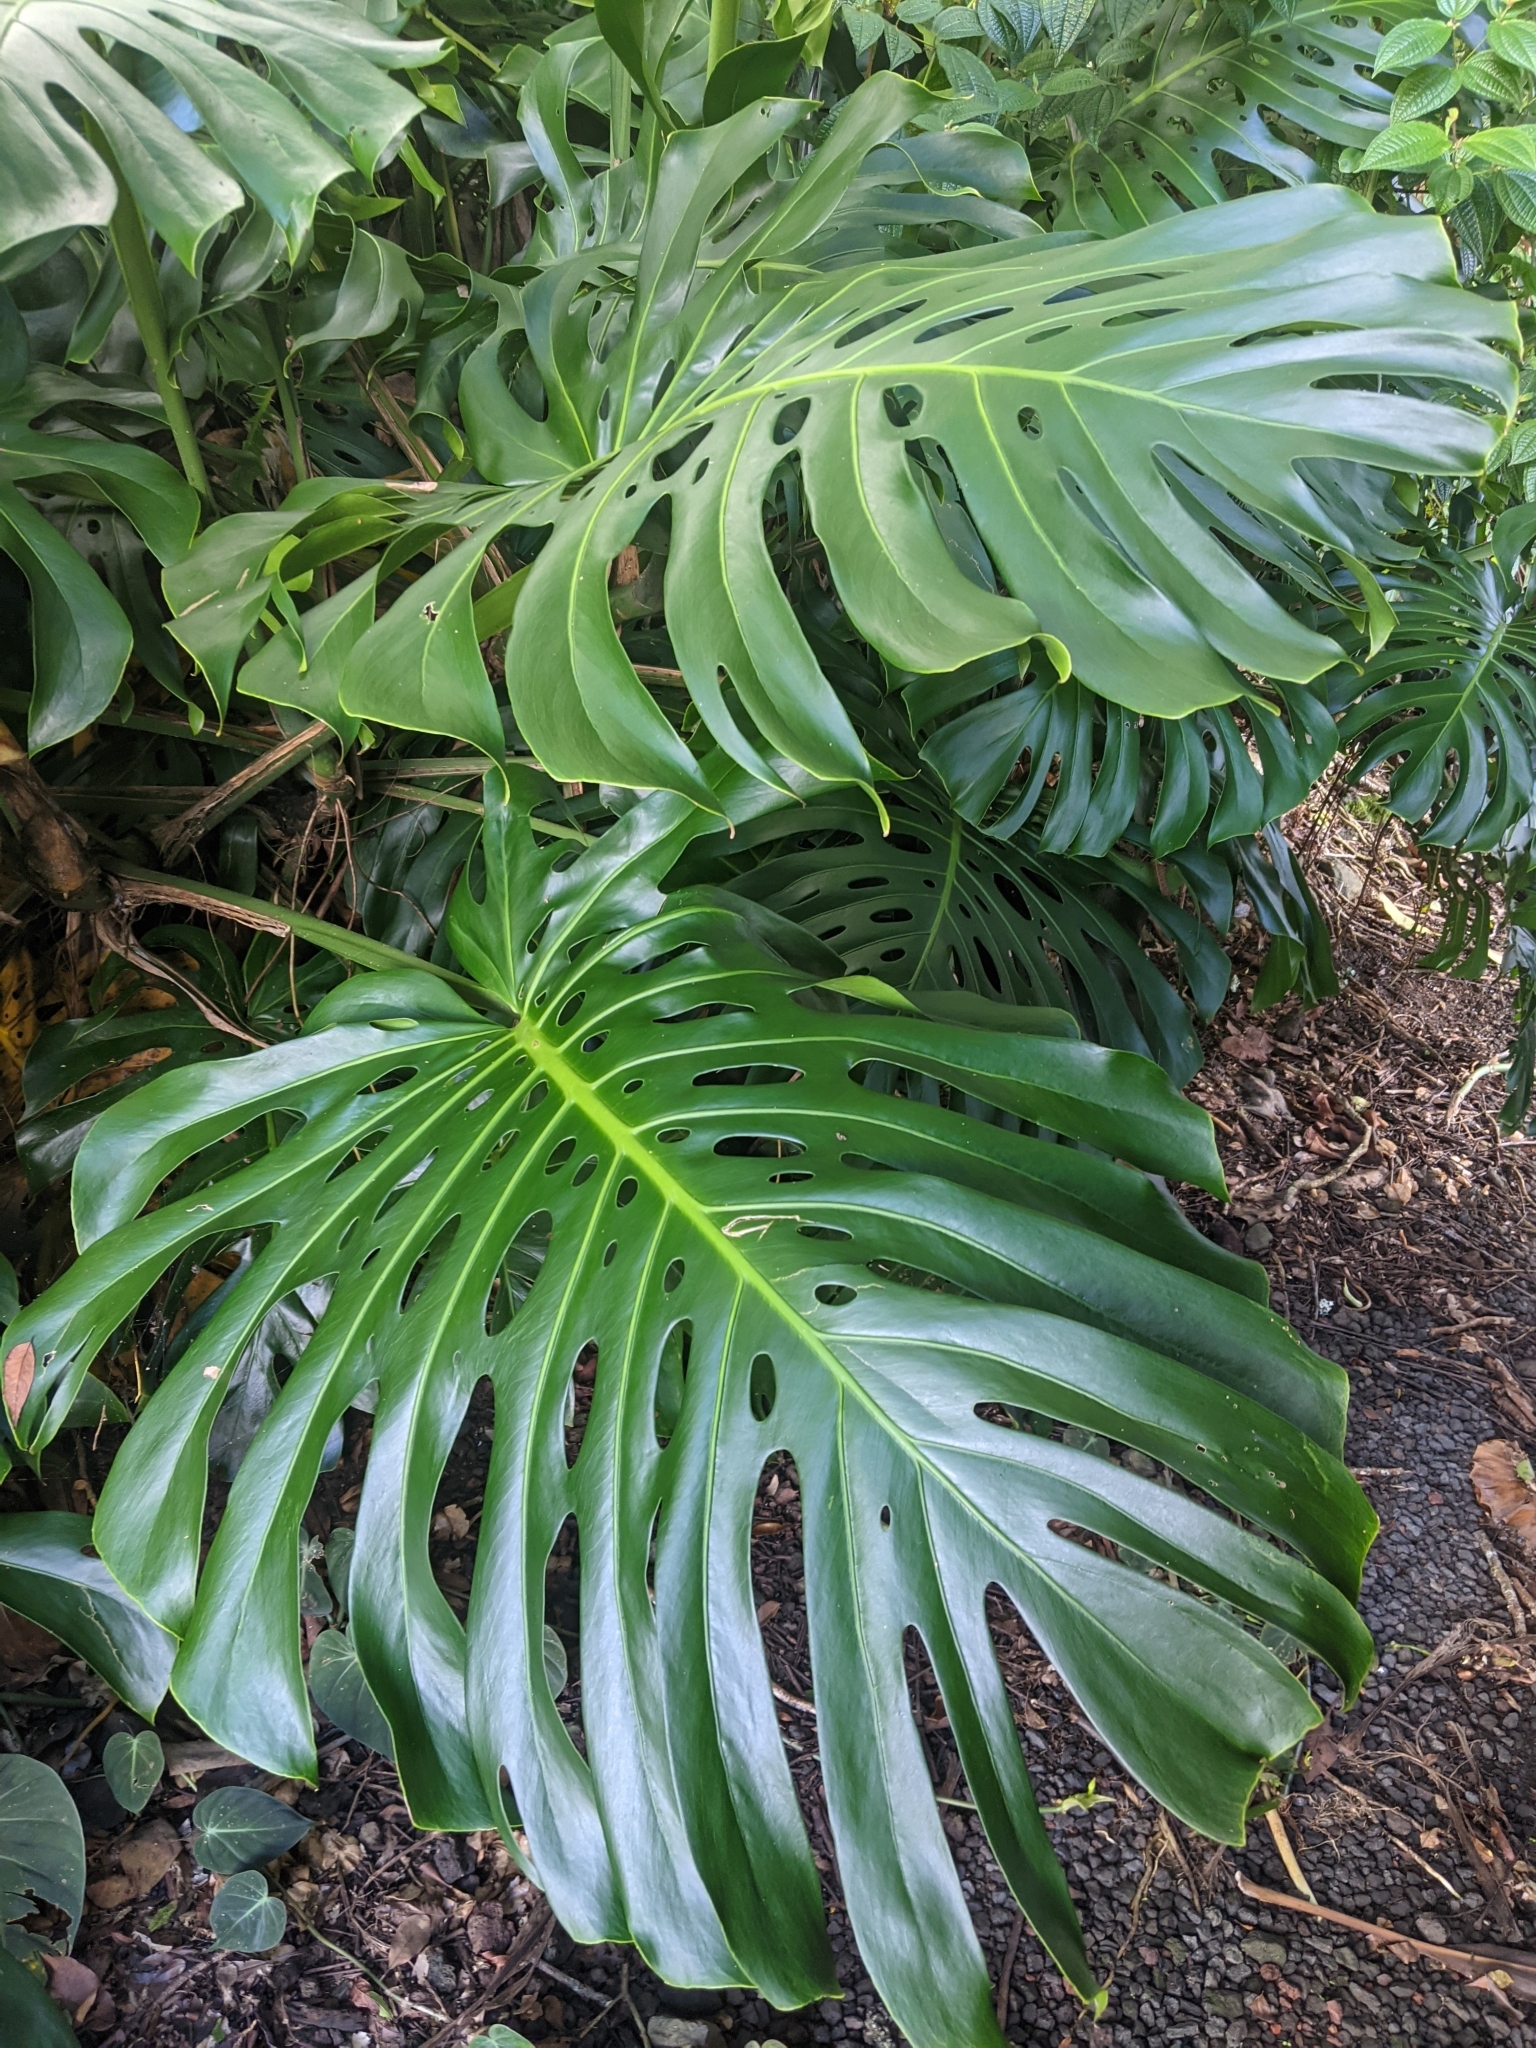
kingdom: Plantae
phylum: Tracheophyta
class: Liliopsida
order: Alismatales
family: Araceae
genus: Monstera
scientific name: Monstera deliciosa
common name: Cut-leaf-philodendron
